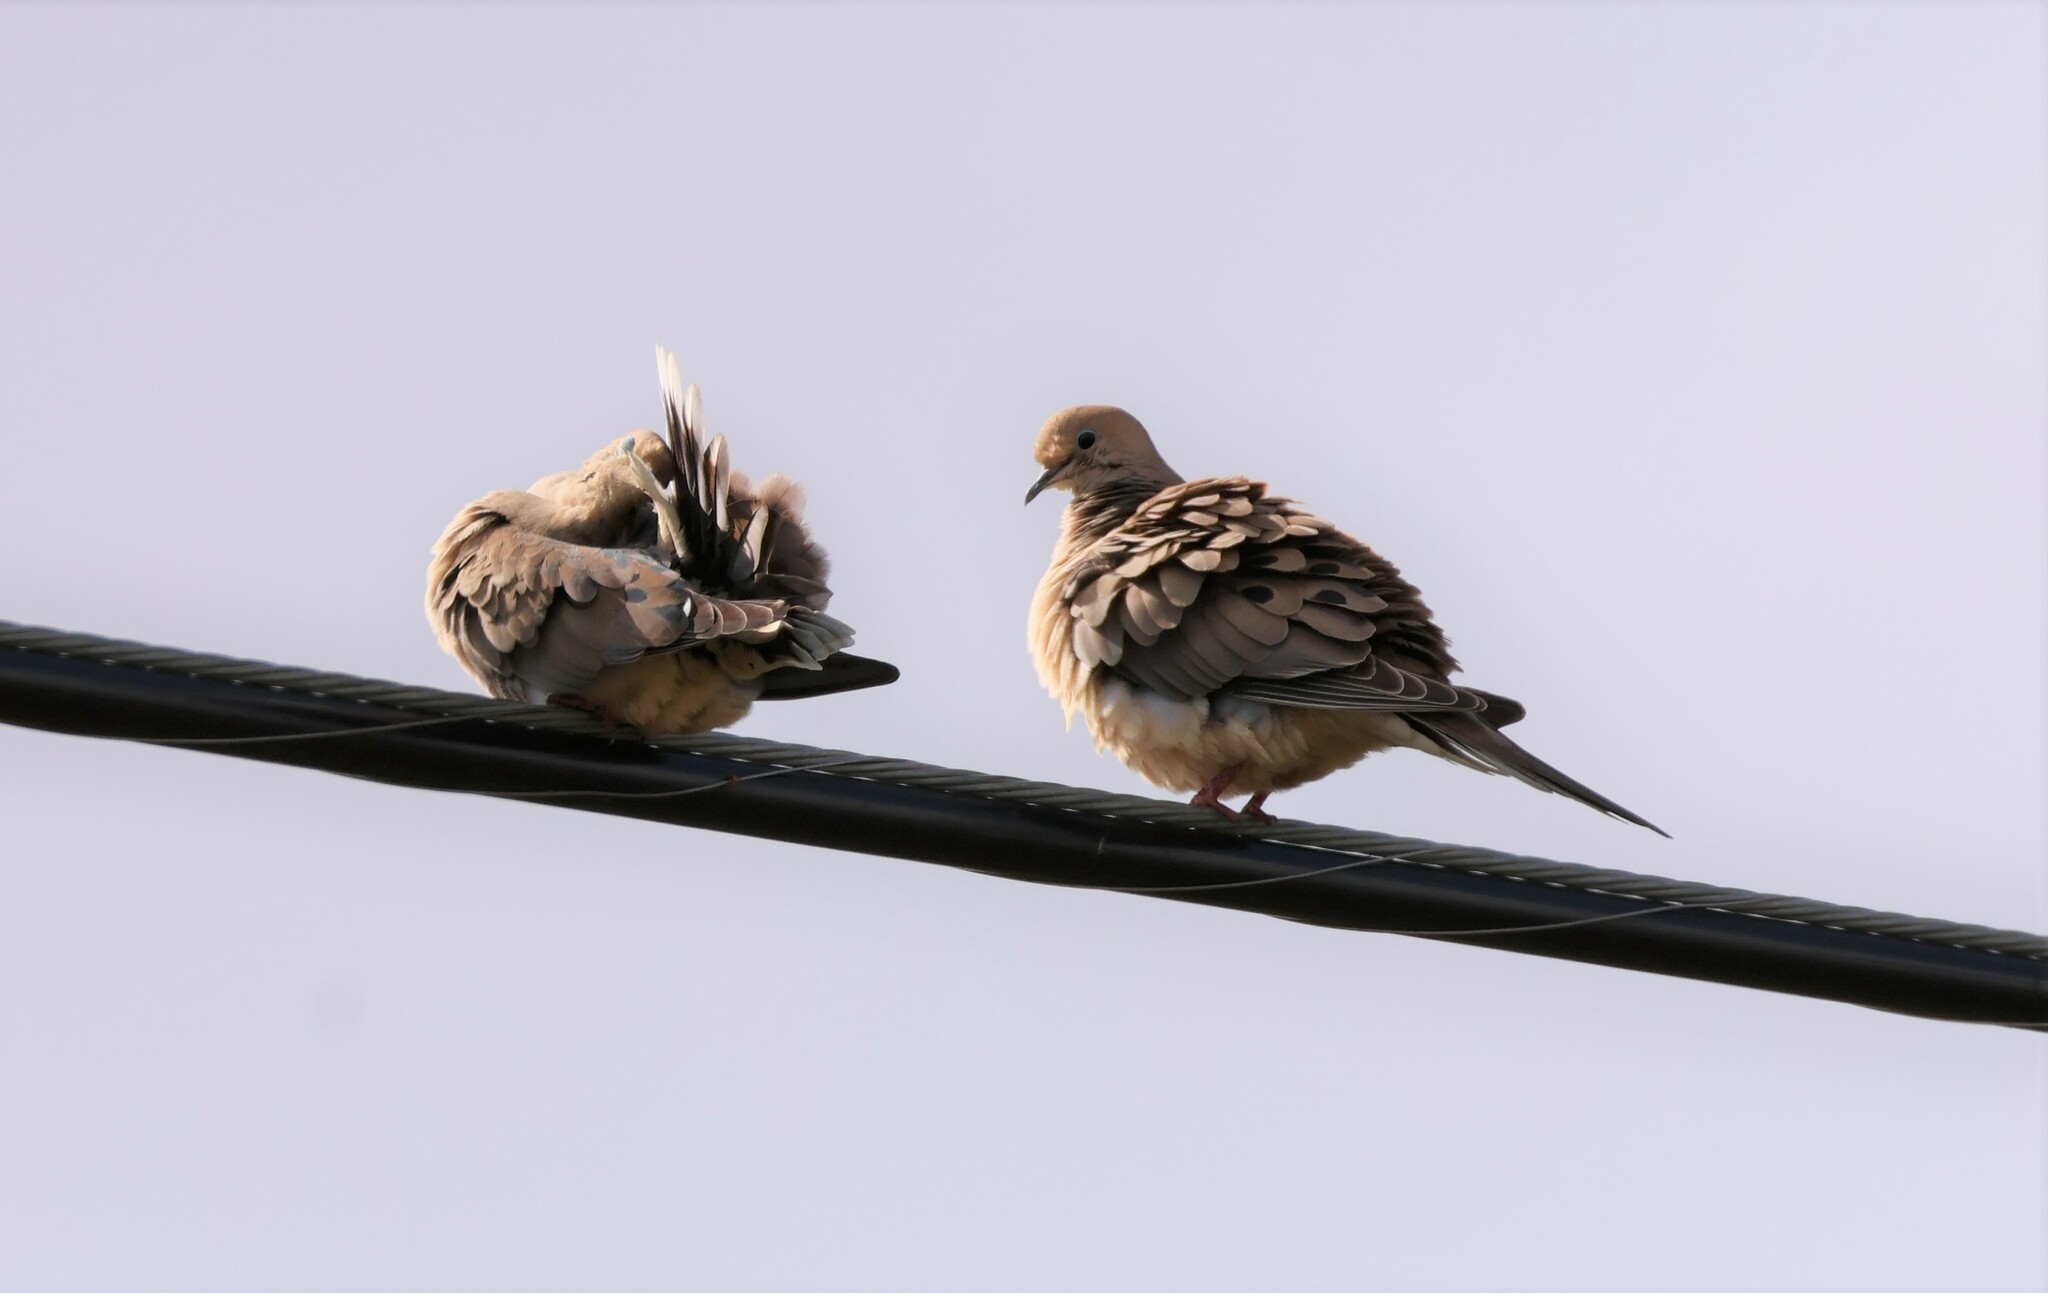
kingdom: Animalia
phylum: Chordata
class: Aves
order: Columbiformes
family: Columbidae
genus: Zenaida
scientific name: Zenaida macroura
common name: Mourning dove
